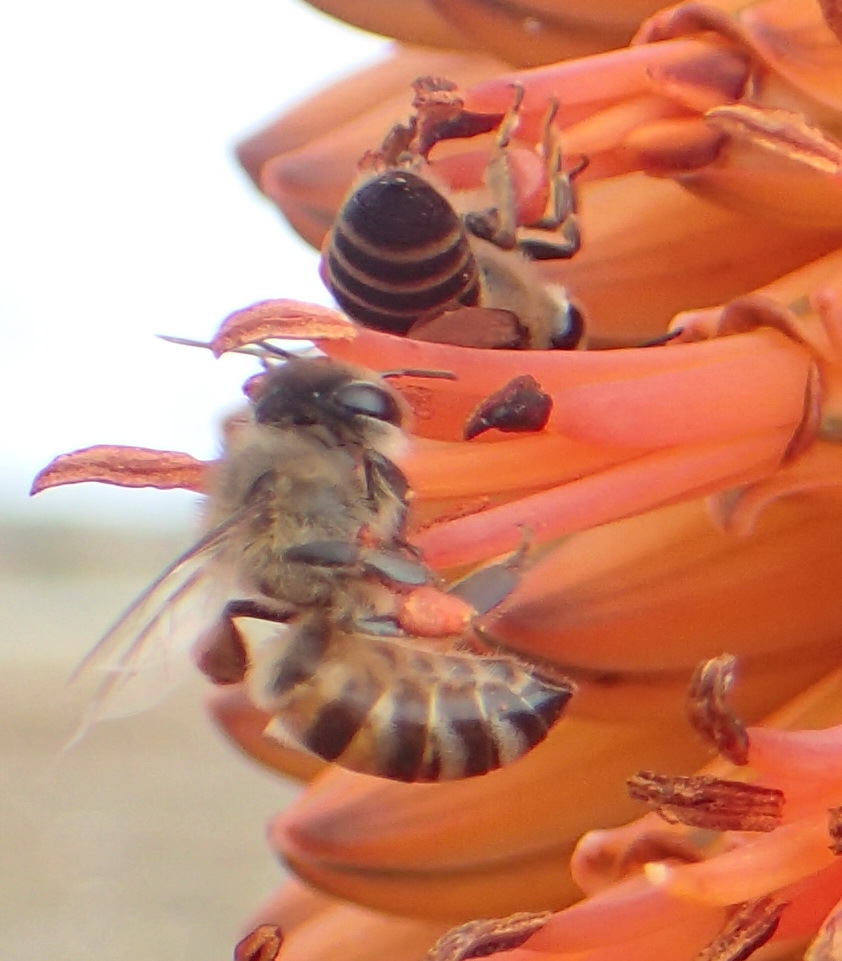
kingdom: Animalia
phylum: Arthropoda
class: Insecta
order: Hymenoptera
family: Apidae
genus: Apis
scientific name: Apis mellifera
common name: Honey bee
